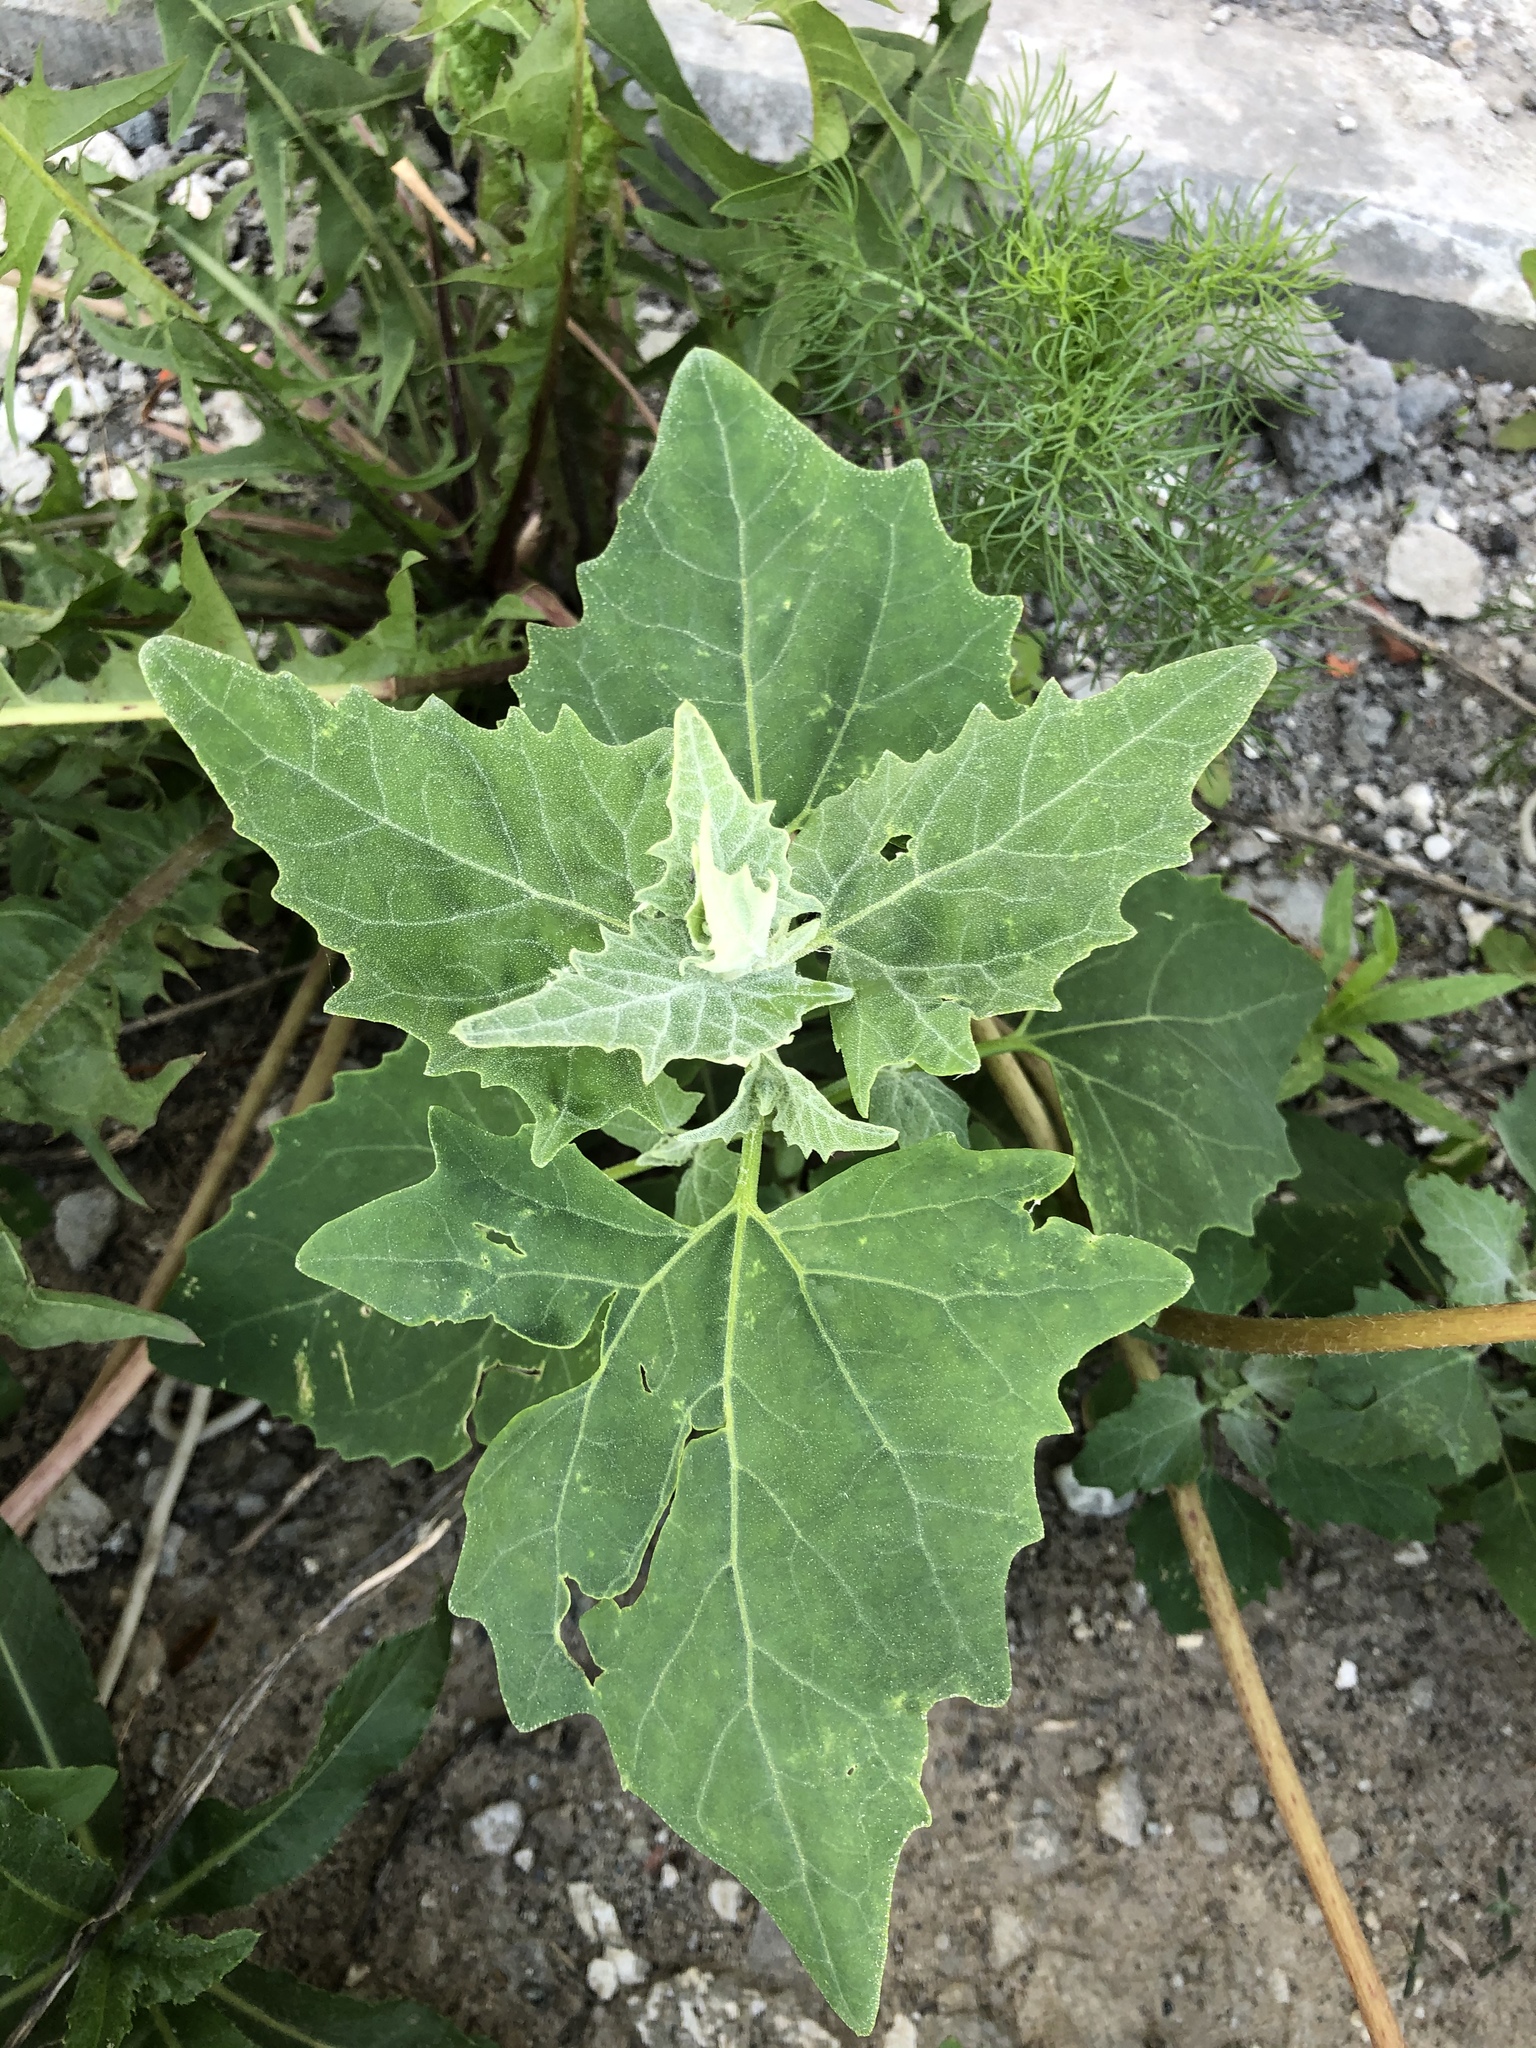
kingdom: Plantae
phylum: Tracheophyta
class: Magnoliopsida
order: Caryophyllales
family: Amaranthaceae
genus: Atriplex
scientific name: Atriplex sagittata
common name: Purple orache
